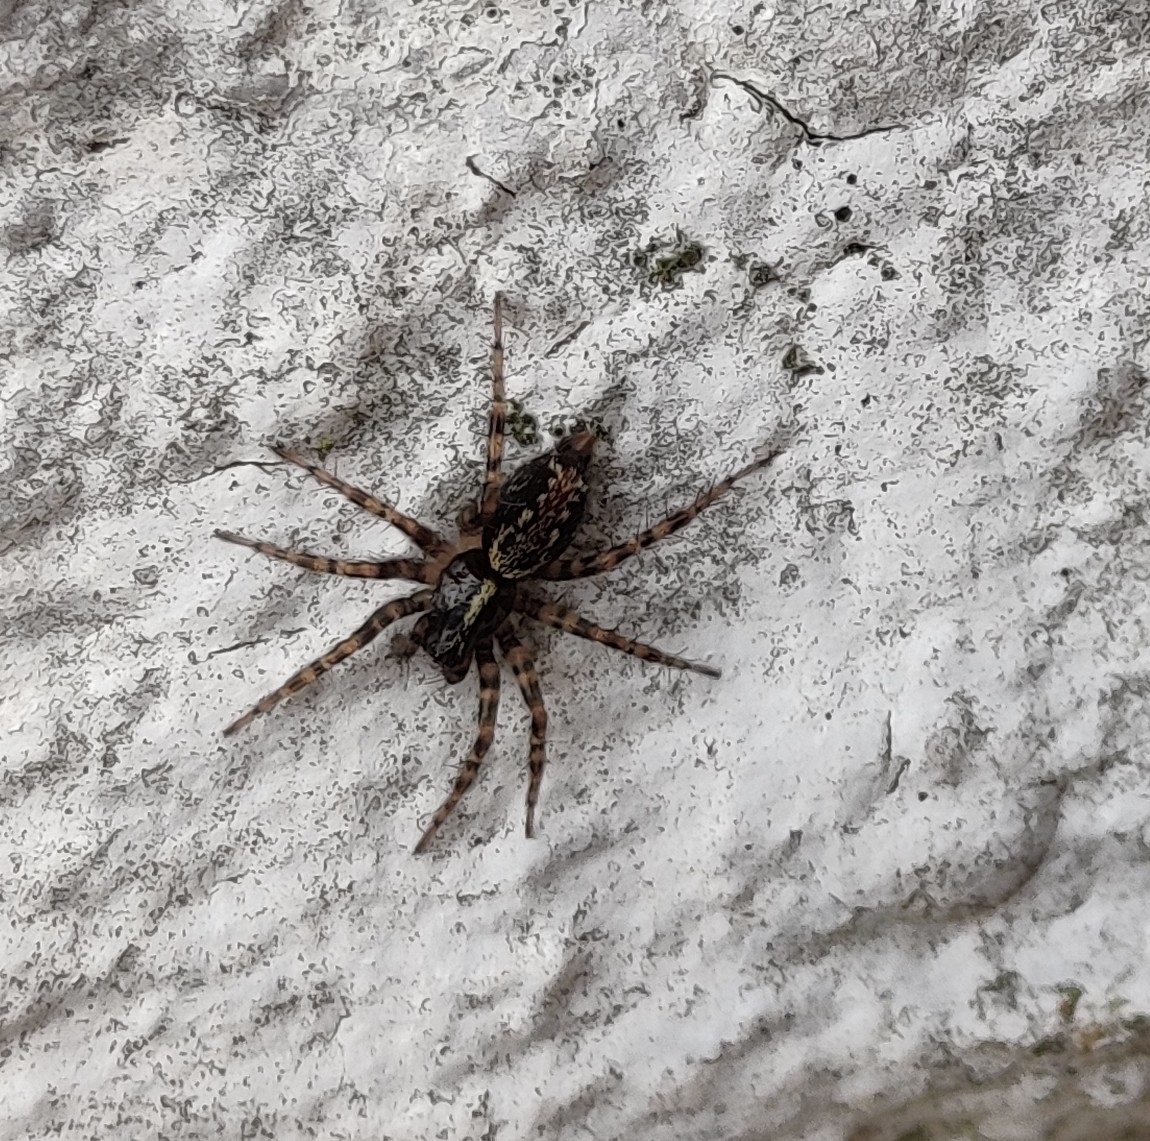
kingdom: Animalia
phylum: Arthropoda
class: Arachnida
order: Araneae
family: Agelenidae
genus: Textrix
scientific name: Textrix denticulata
